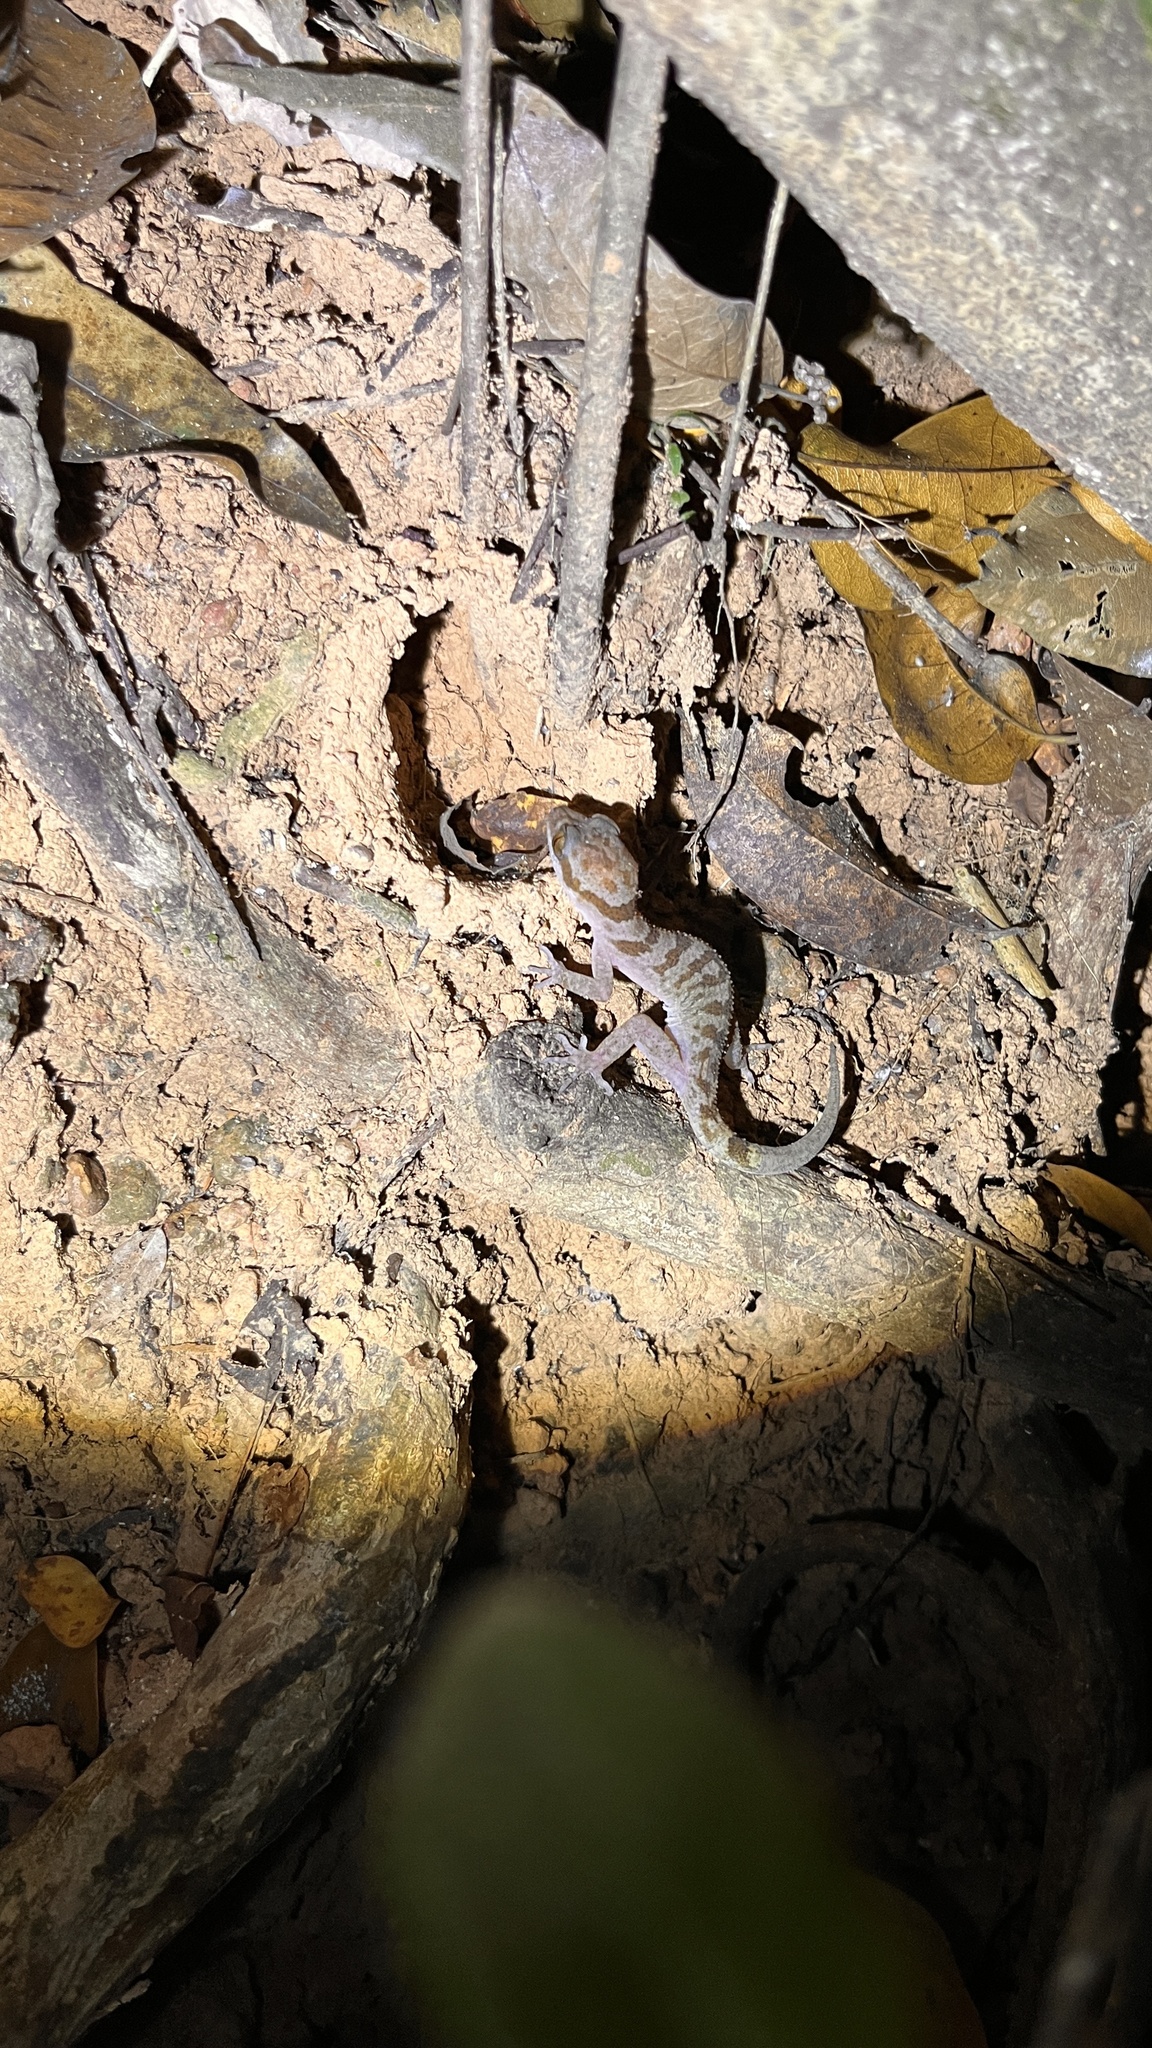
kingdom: Animalia
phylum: Chordata
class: Squamata
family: Gekkonidae
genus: Cyrtodactylus
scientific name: Cyrtodactylus cattienensis
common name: Cat tien bent-toed gecko
